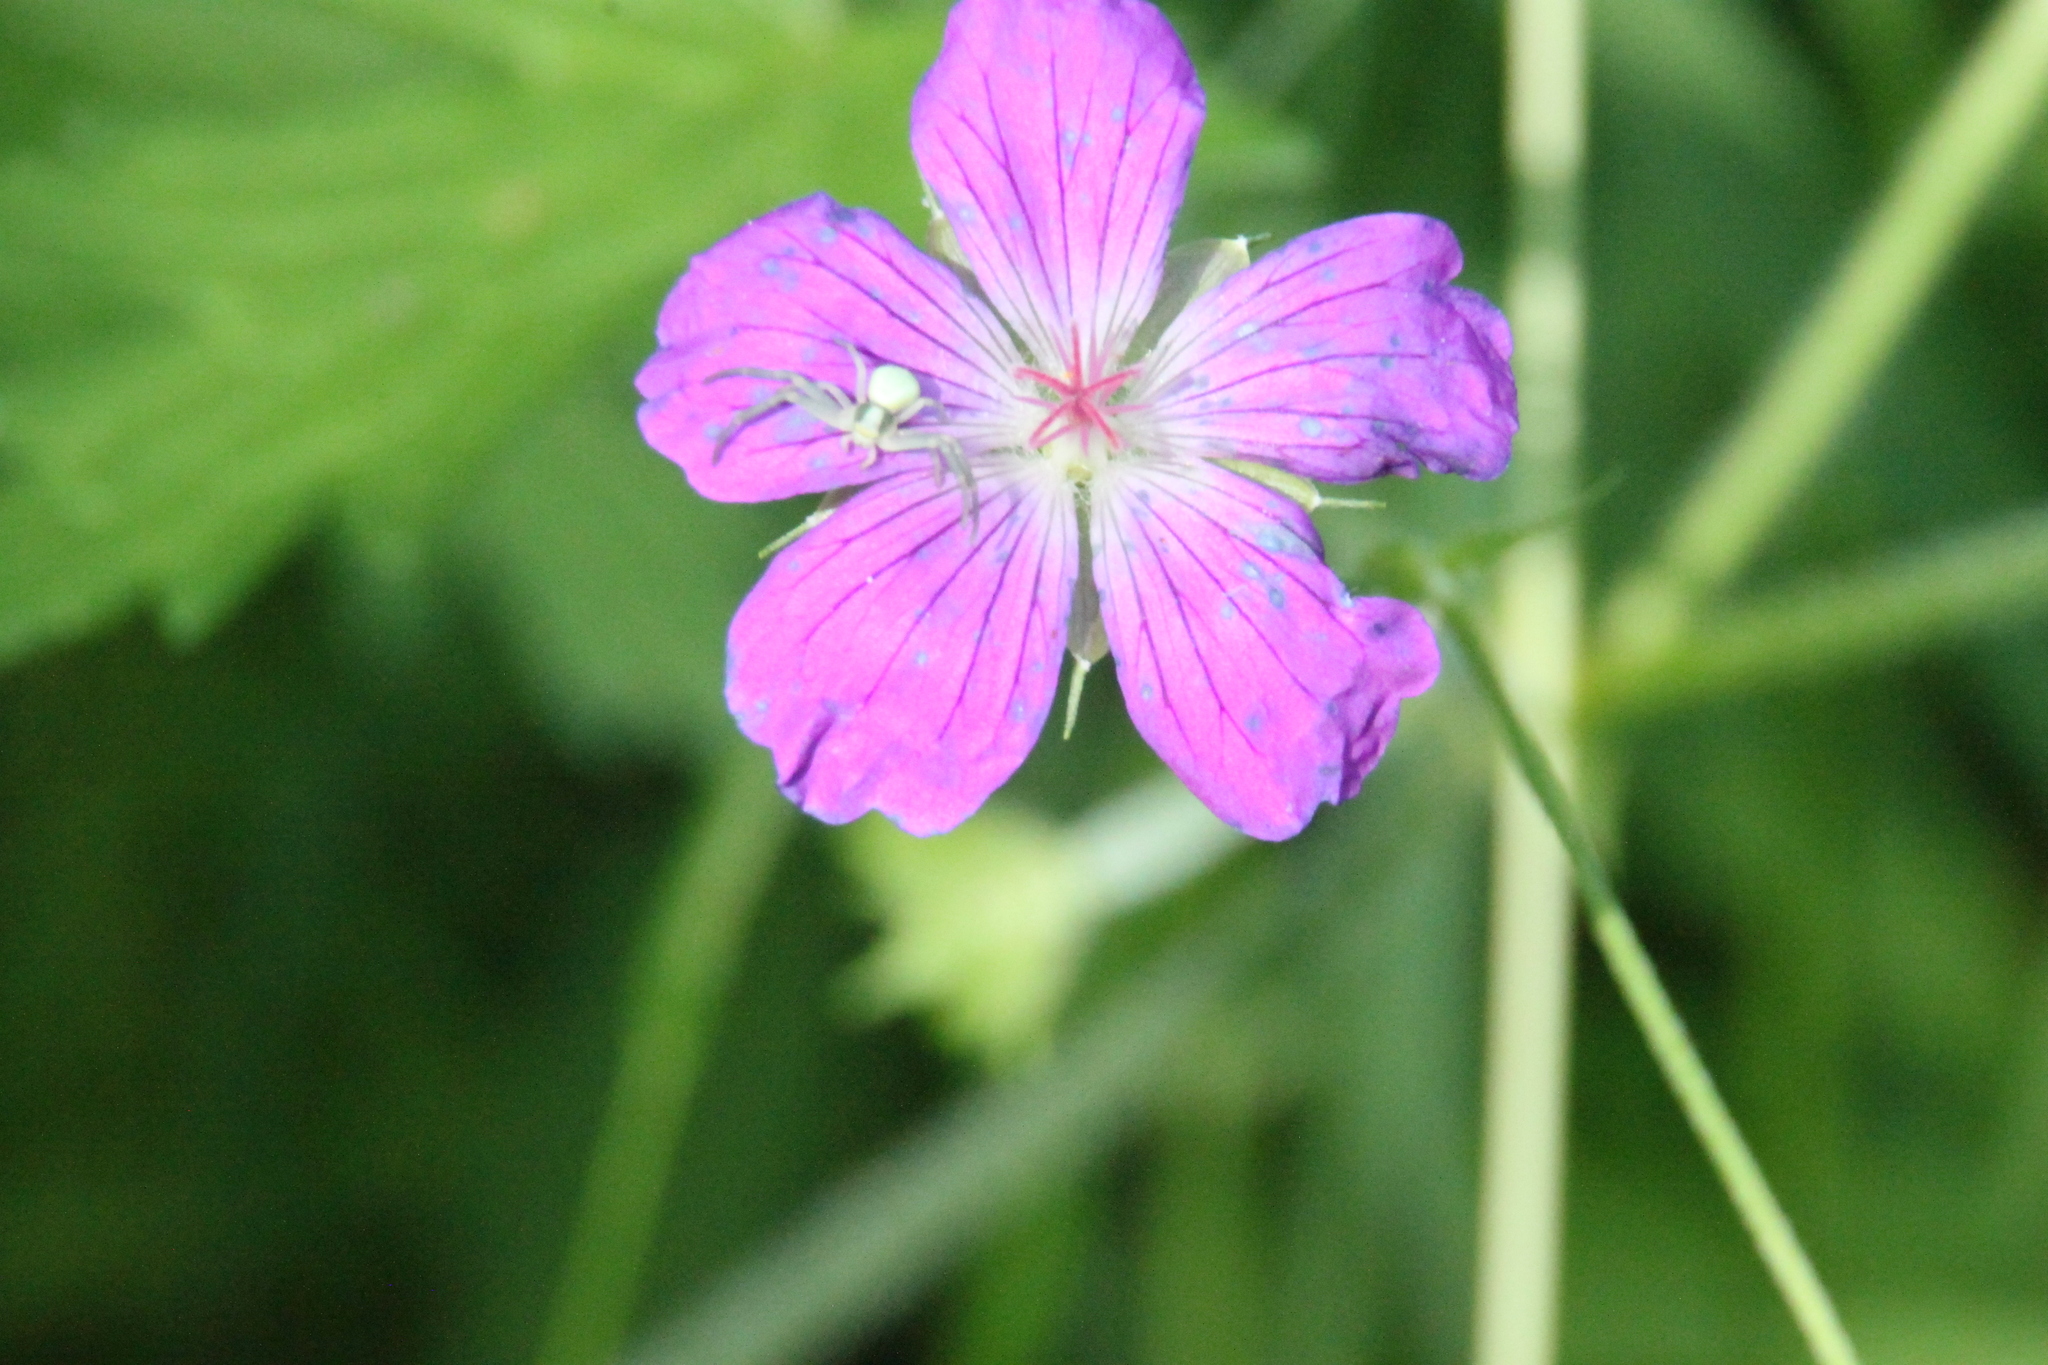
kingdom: Plantae
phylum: Tracheophyta
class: Magnoliopsida
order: Geraniales
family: Geraniaceae
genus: Geranium
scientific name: Geranium palustre
